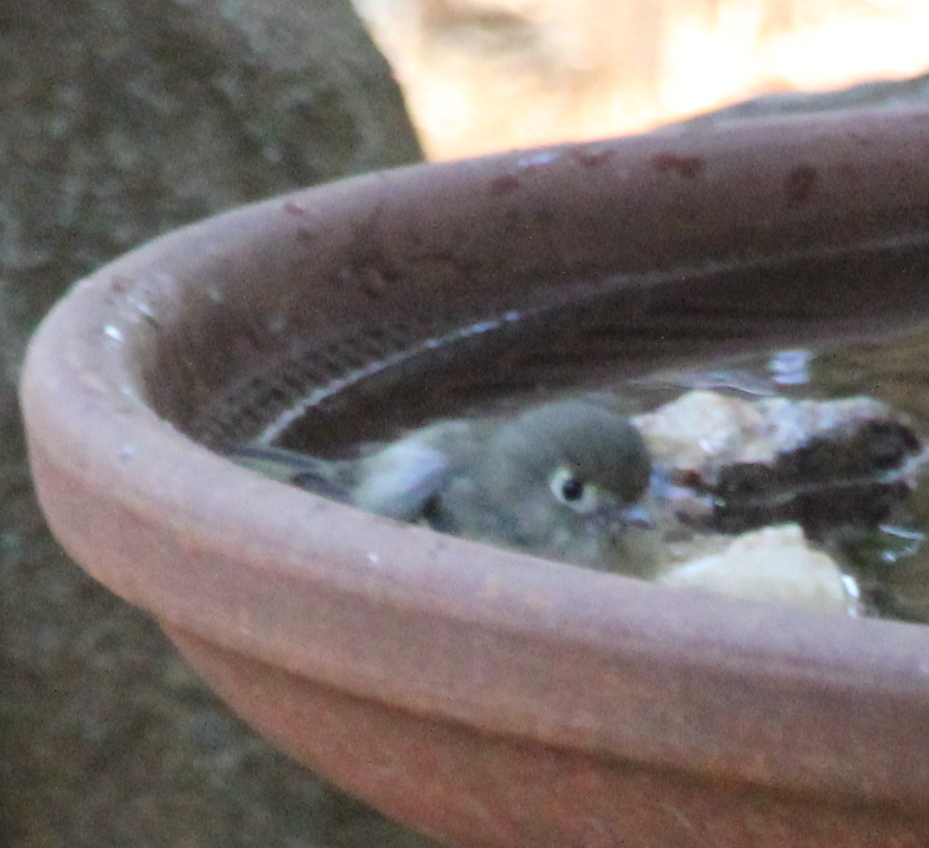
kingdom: Animalia
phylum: Chordata
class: Aves
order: Passeriformes
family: Vireonidae
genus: Vireo
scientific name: Vireo huttoni
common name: Hutton's vireo
